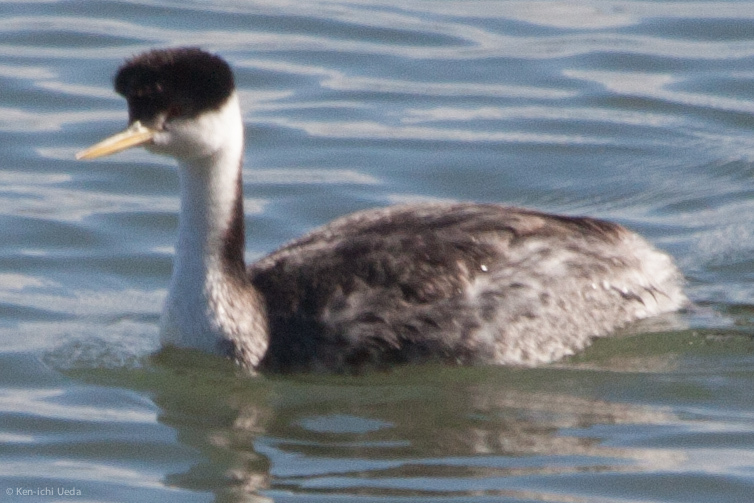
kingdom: Animalia
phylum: Chordata
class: Aves
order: Podicipediformes
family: Podicipedidae
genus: Aechmophorus
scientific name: Aechmophorus occidentalis
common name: Western grebe
